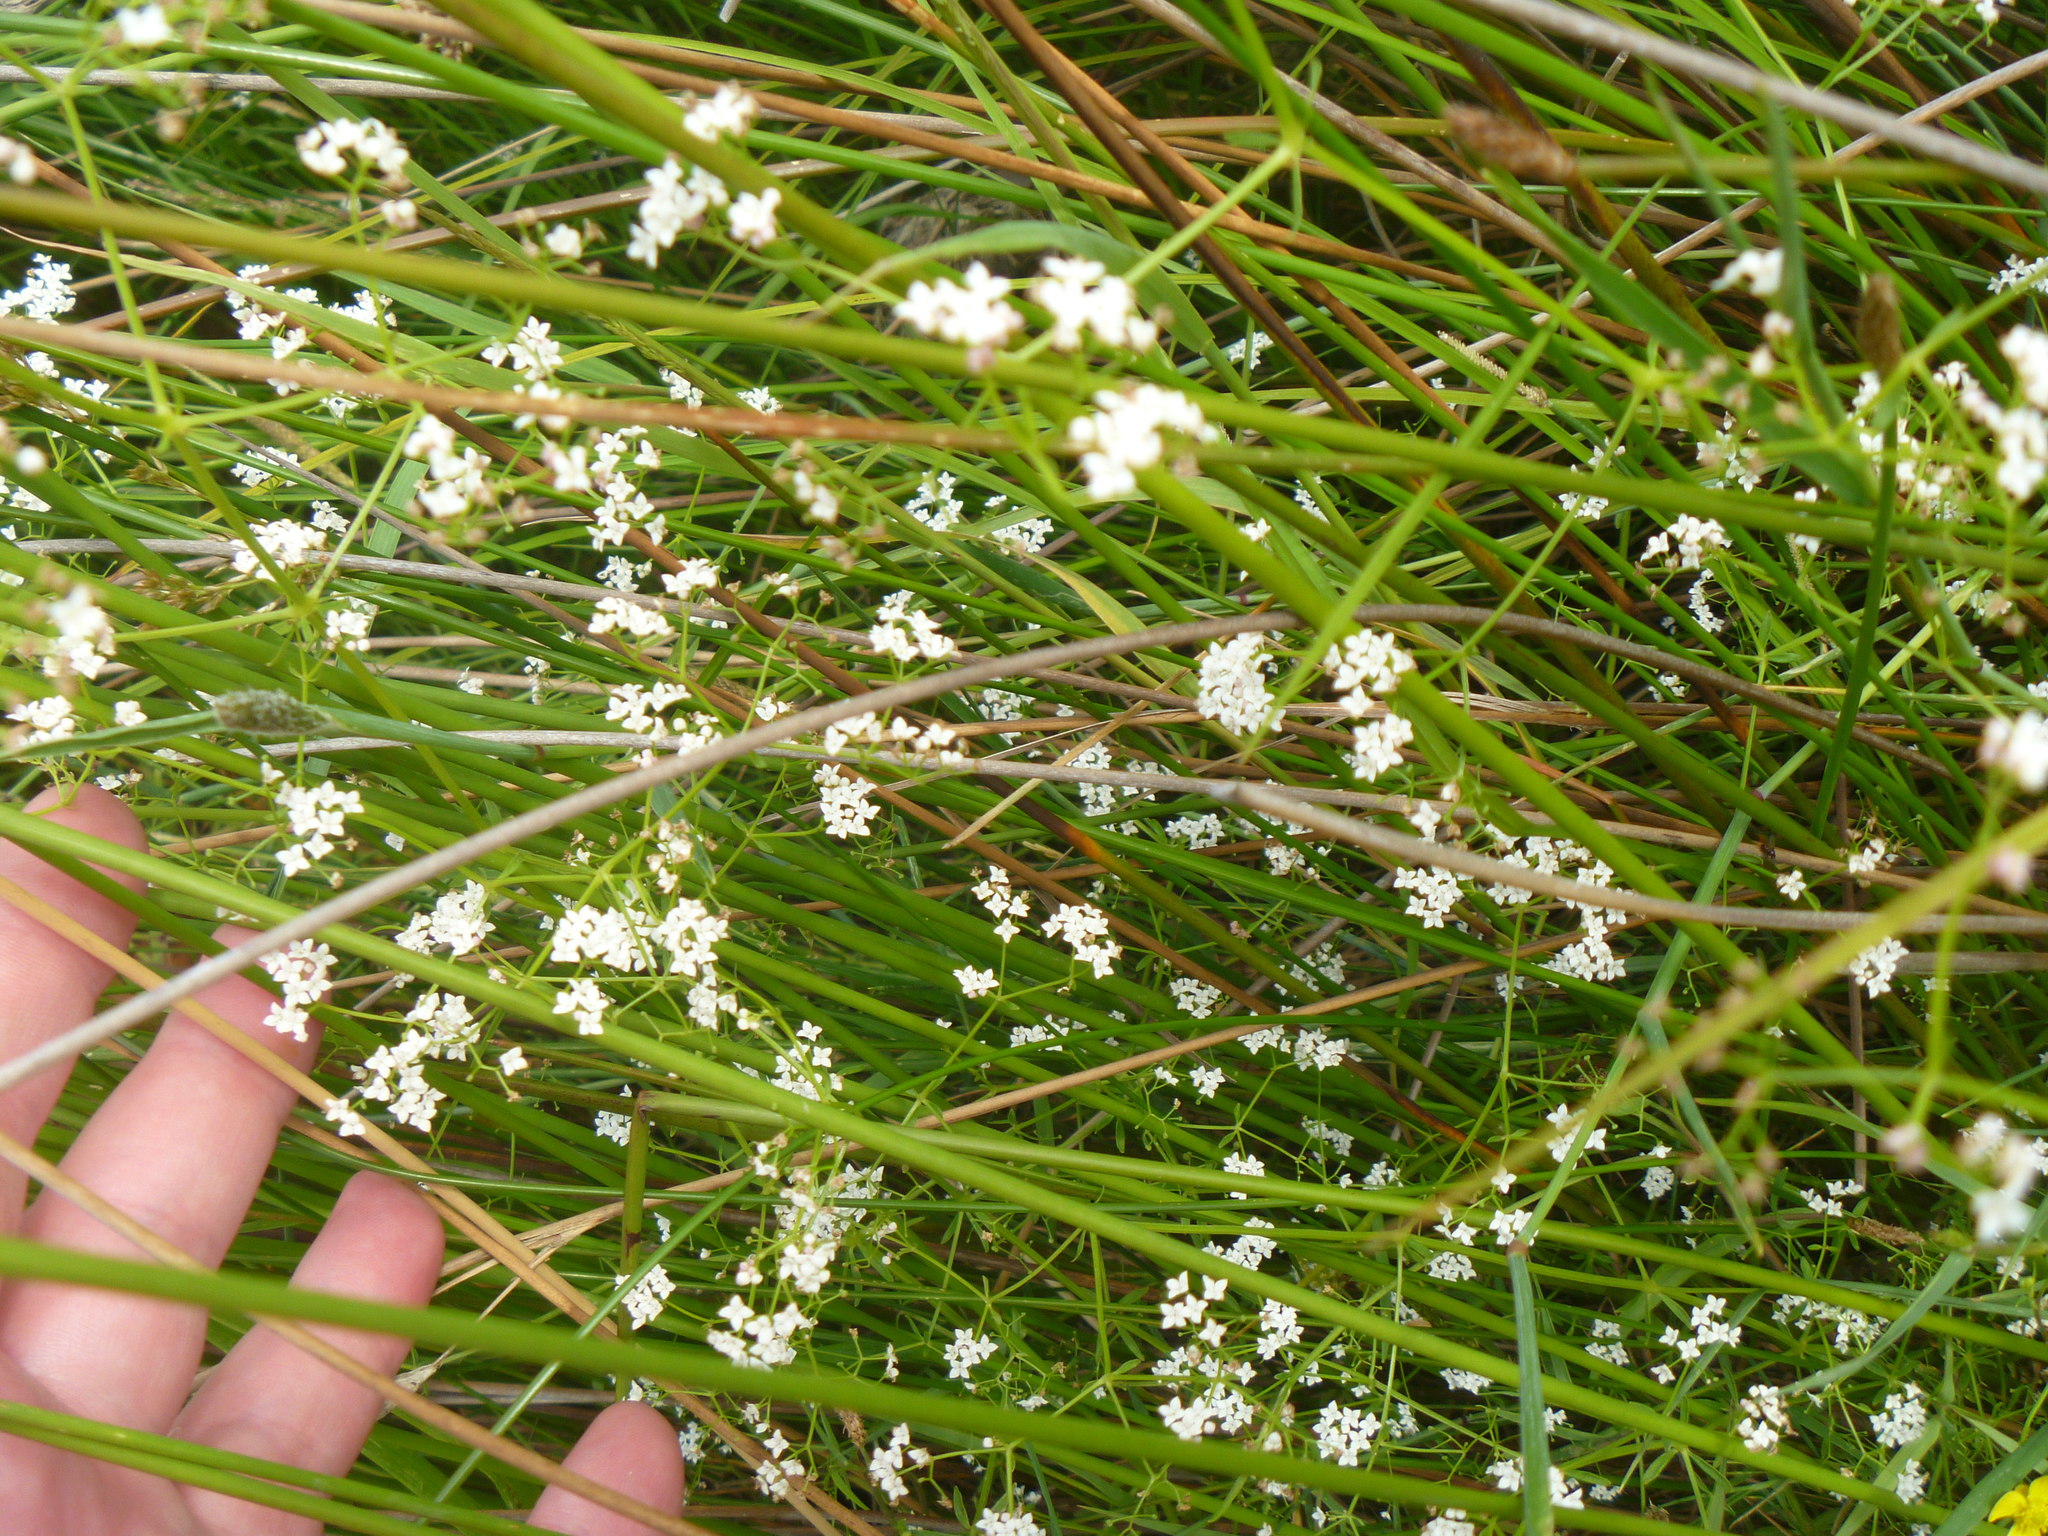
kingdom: Plantae
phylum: Tracheophyta
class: Magnoliopsida
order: Gentianales
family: Rubiaceae
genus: Galium
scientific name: Galium palustre
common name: Common marsh-bedstraw
